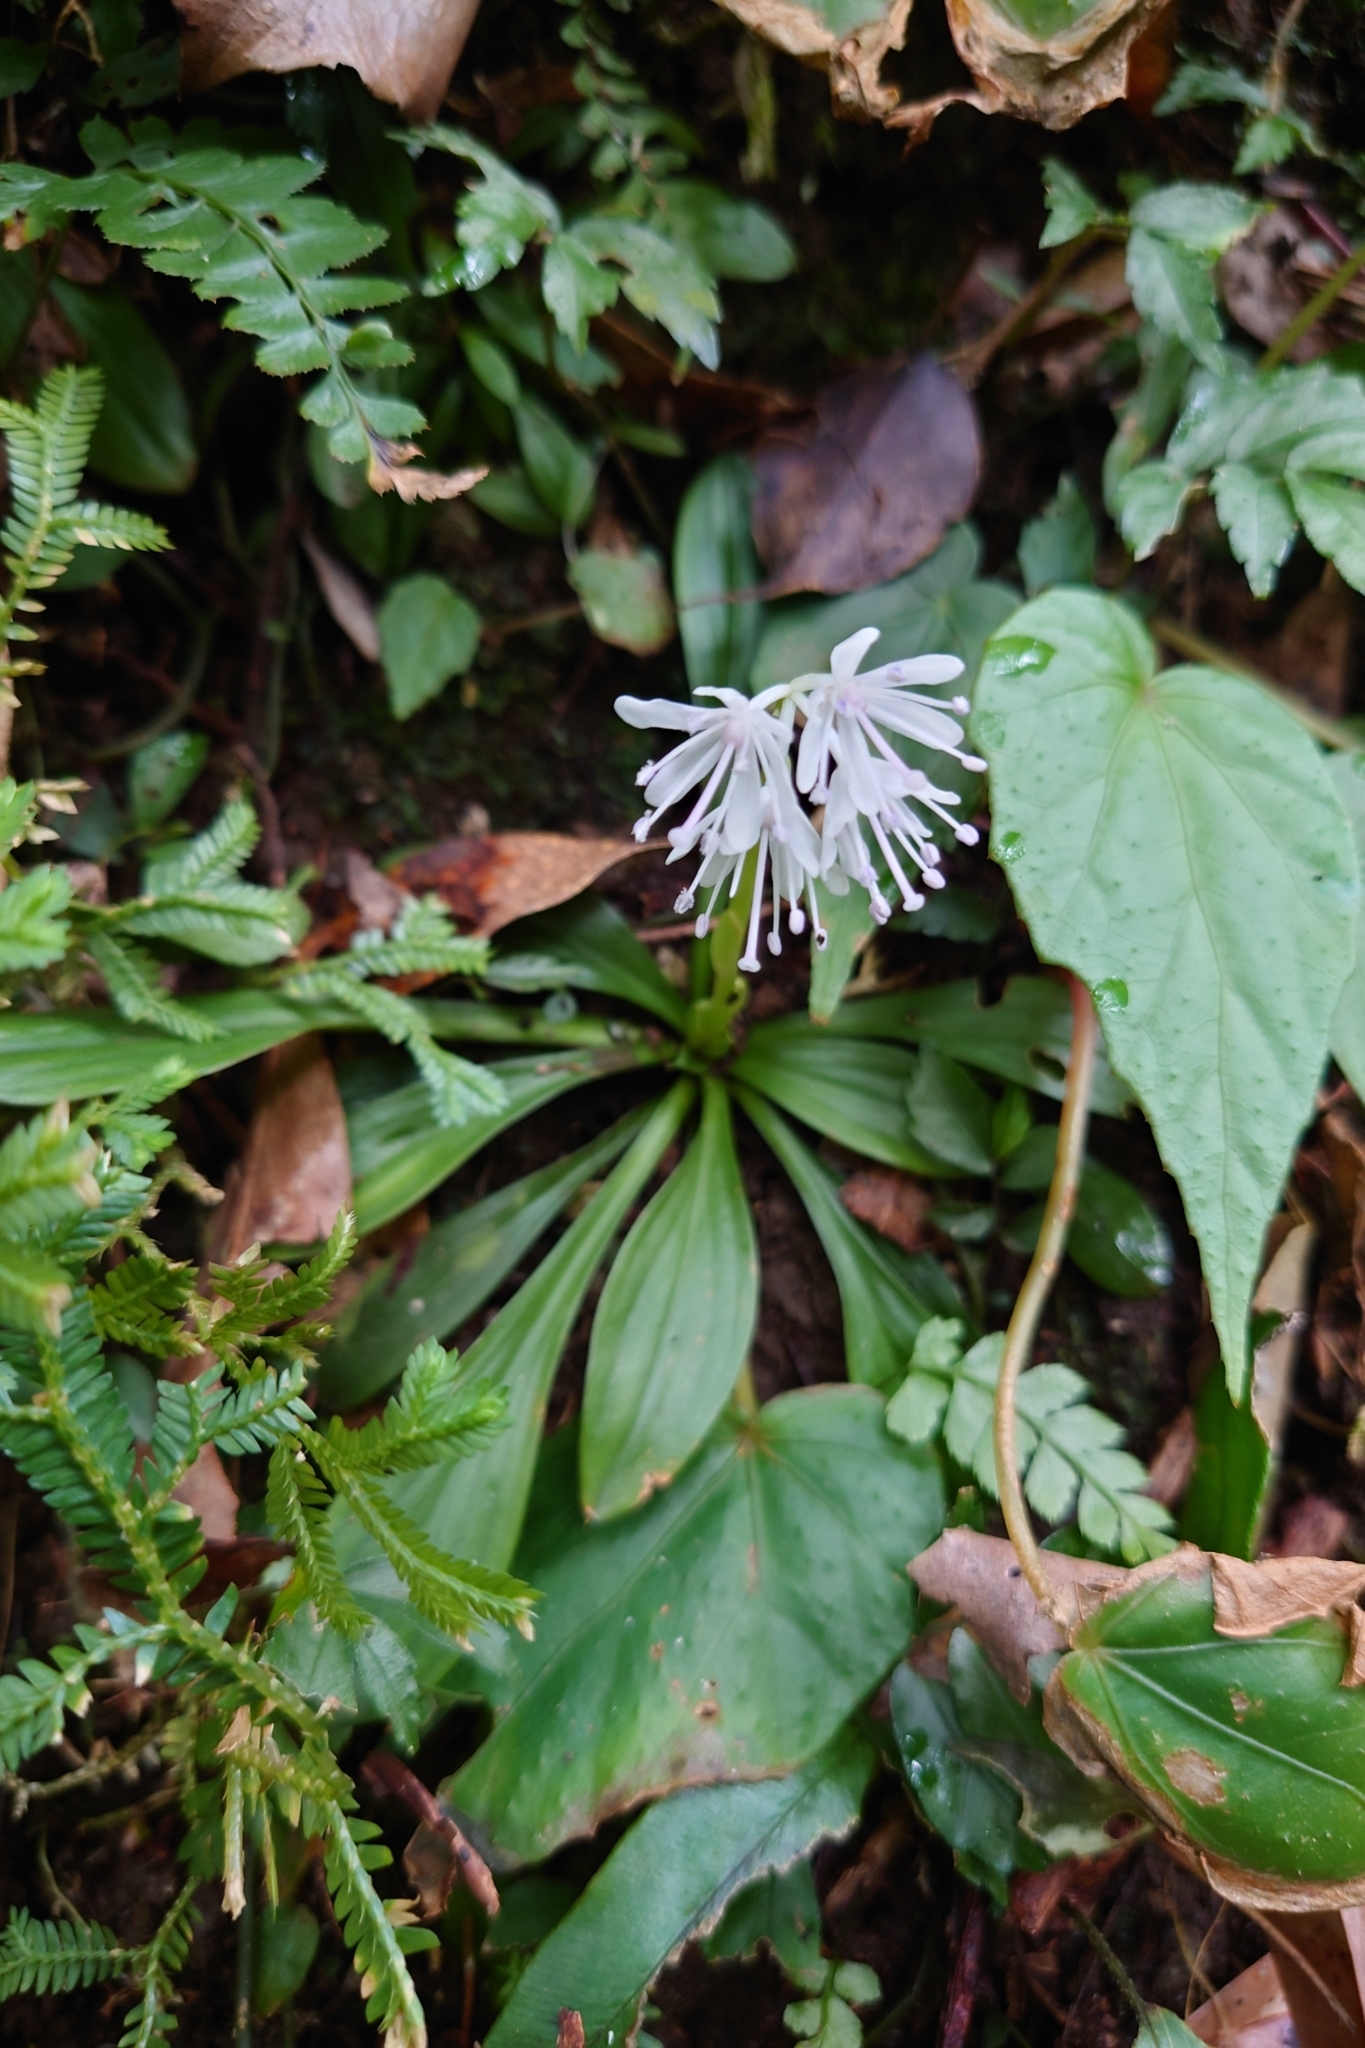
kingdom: Plantae
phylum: Tracheophyta
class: Liliopsida
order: Liliales
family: Melanthiaceae
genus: Helonias
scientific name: Helonias umbellata
